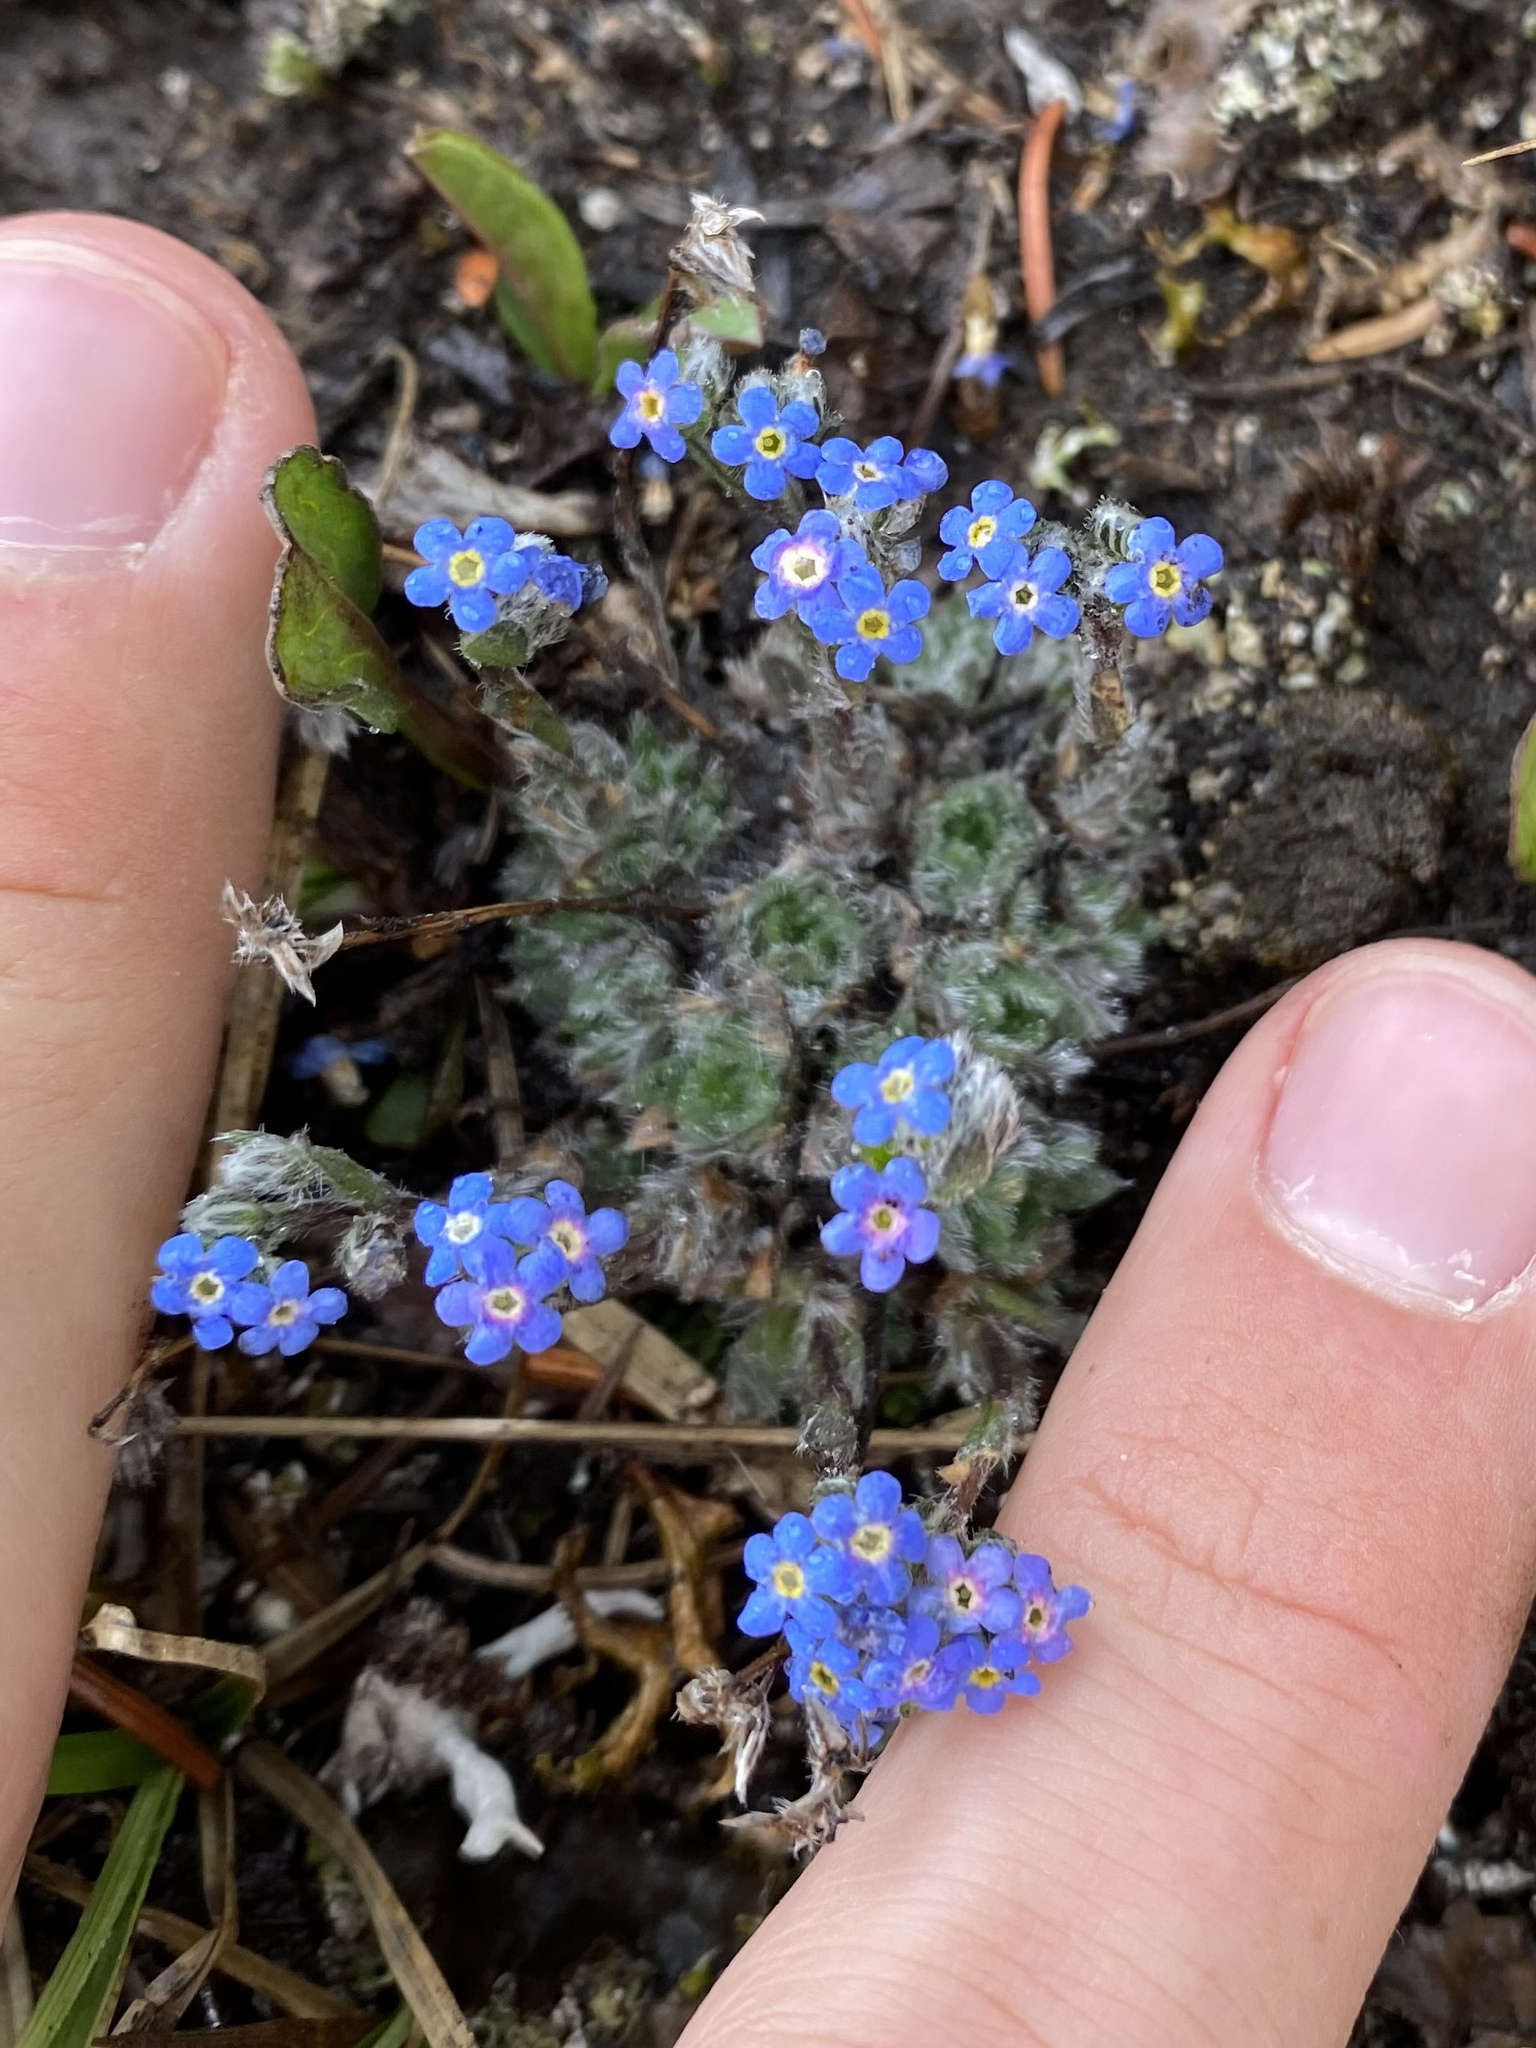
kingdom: Plantae
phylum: Tracheophyta
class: Magnoliopsida
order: Boraginales
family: Boraginaceae
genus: Eritrichium
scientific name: Eritrichium argenteum
